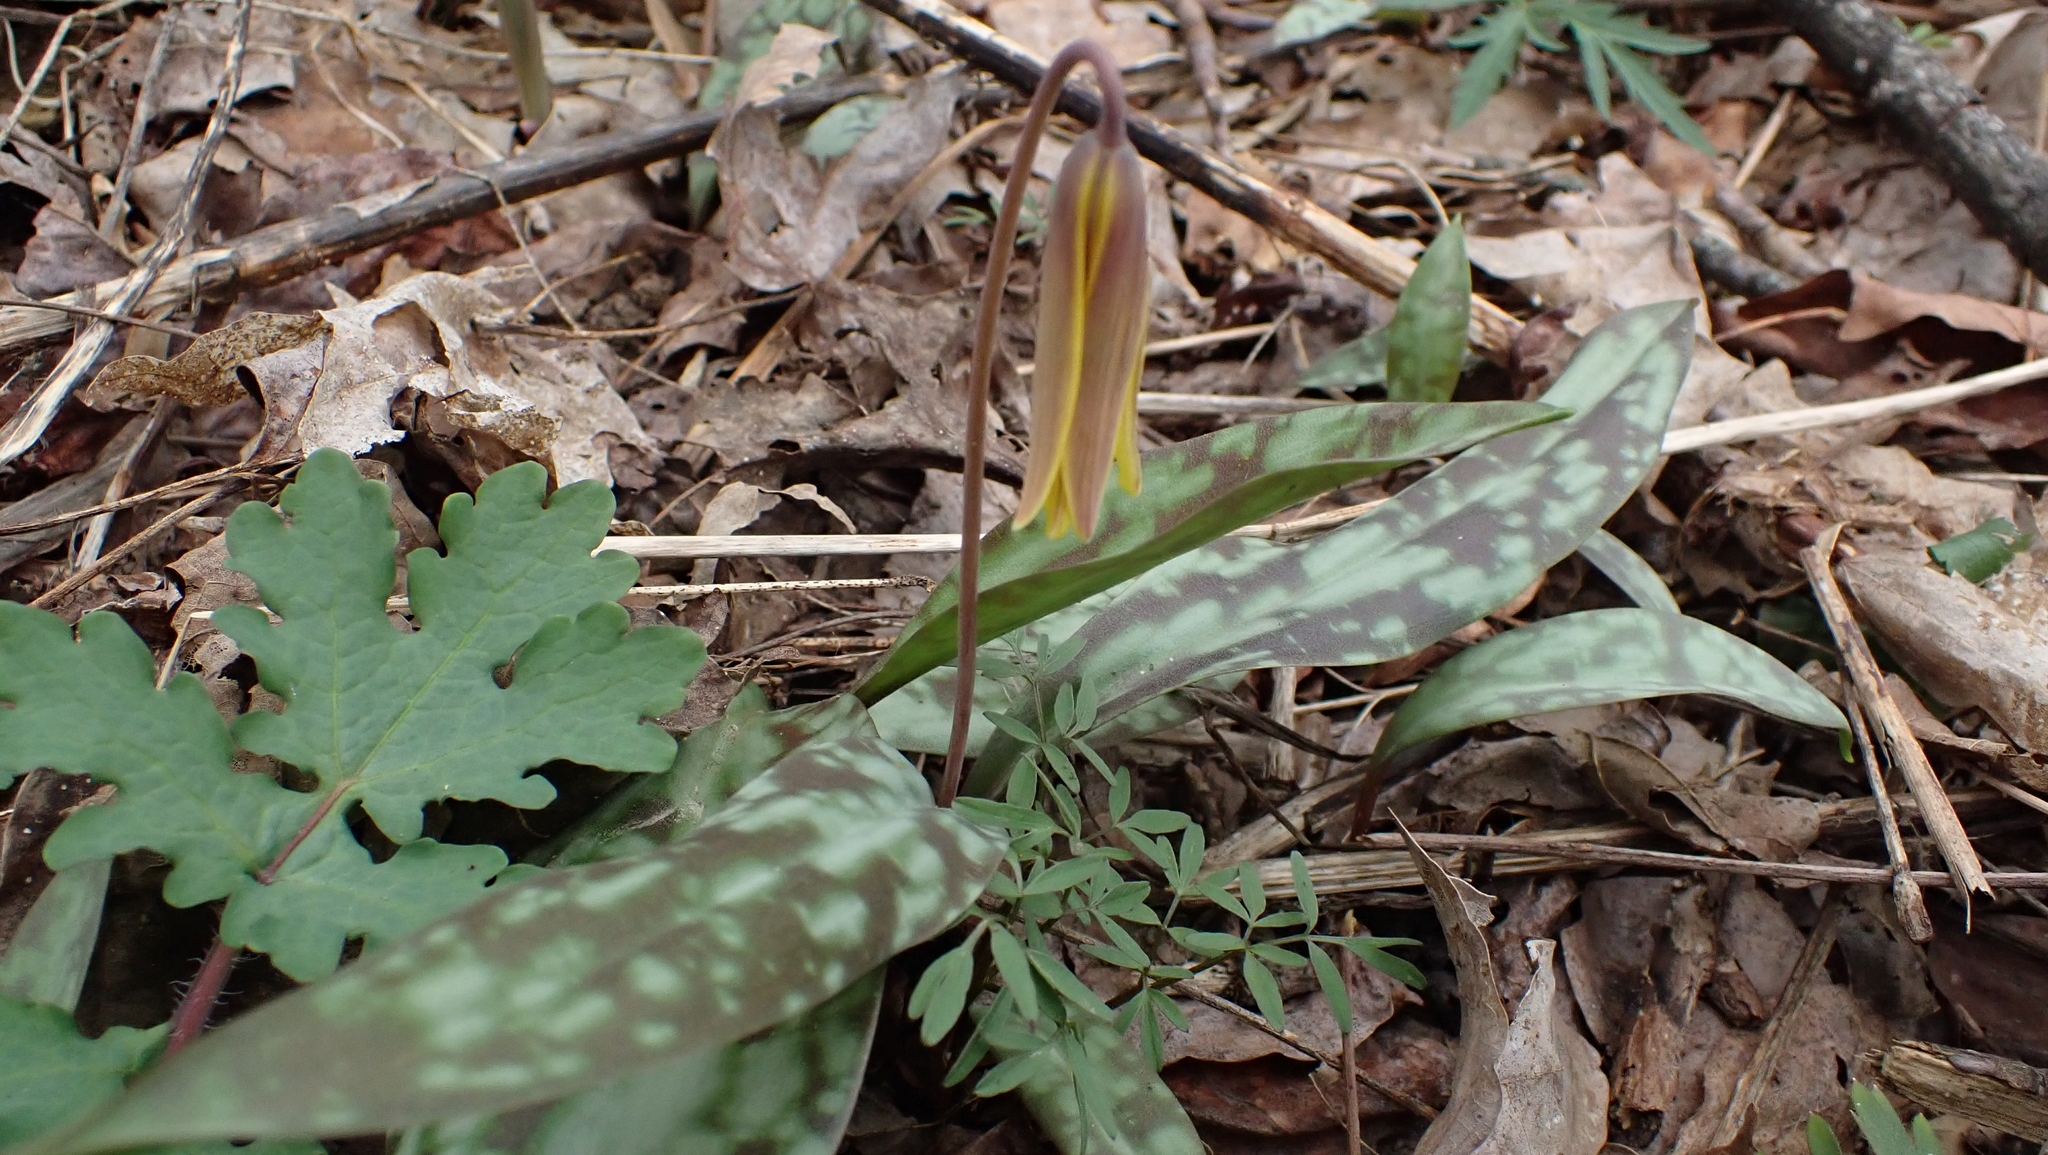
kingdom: Plantae
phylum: Tracheophyta
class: Liliopsida
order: Liliales
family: Liliaceae
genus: Erythronium
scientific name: Erythronium americanum
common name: Yellow adder's-tongue
